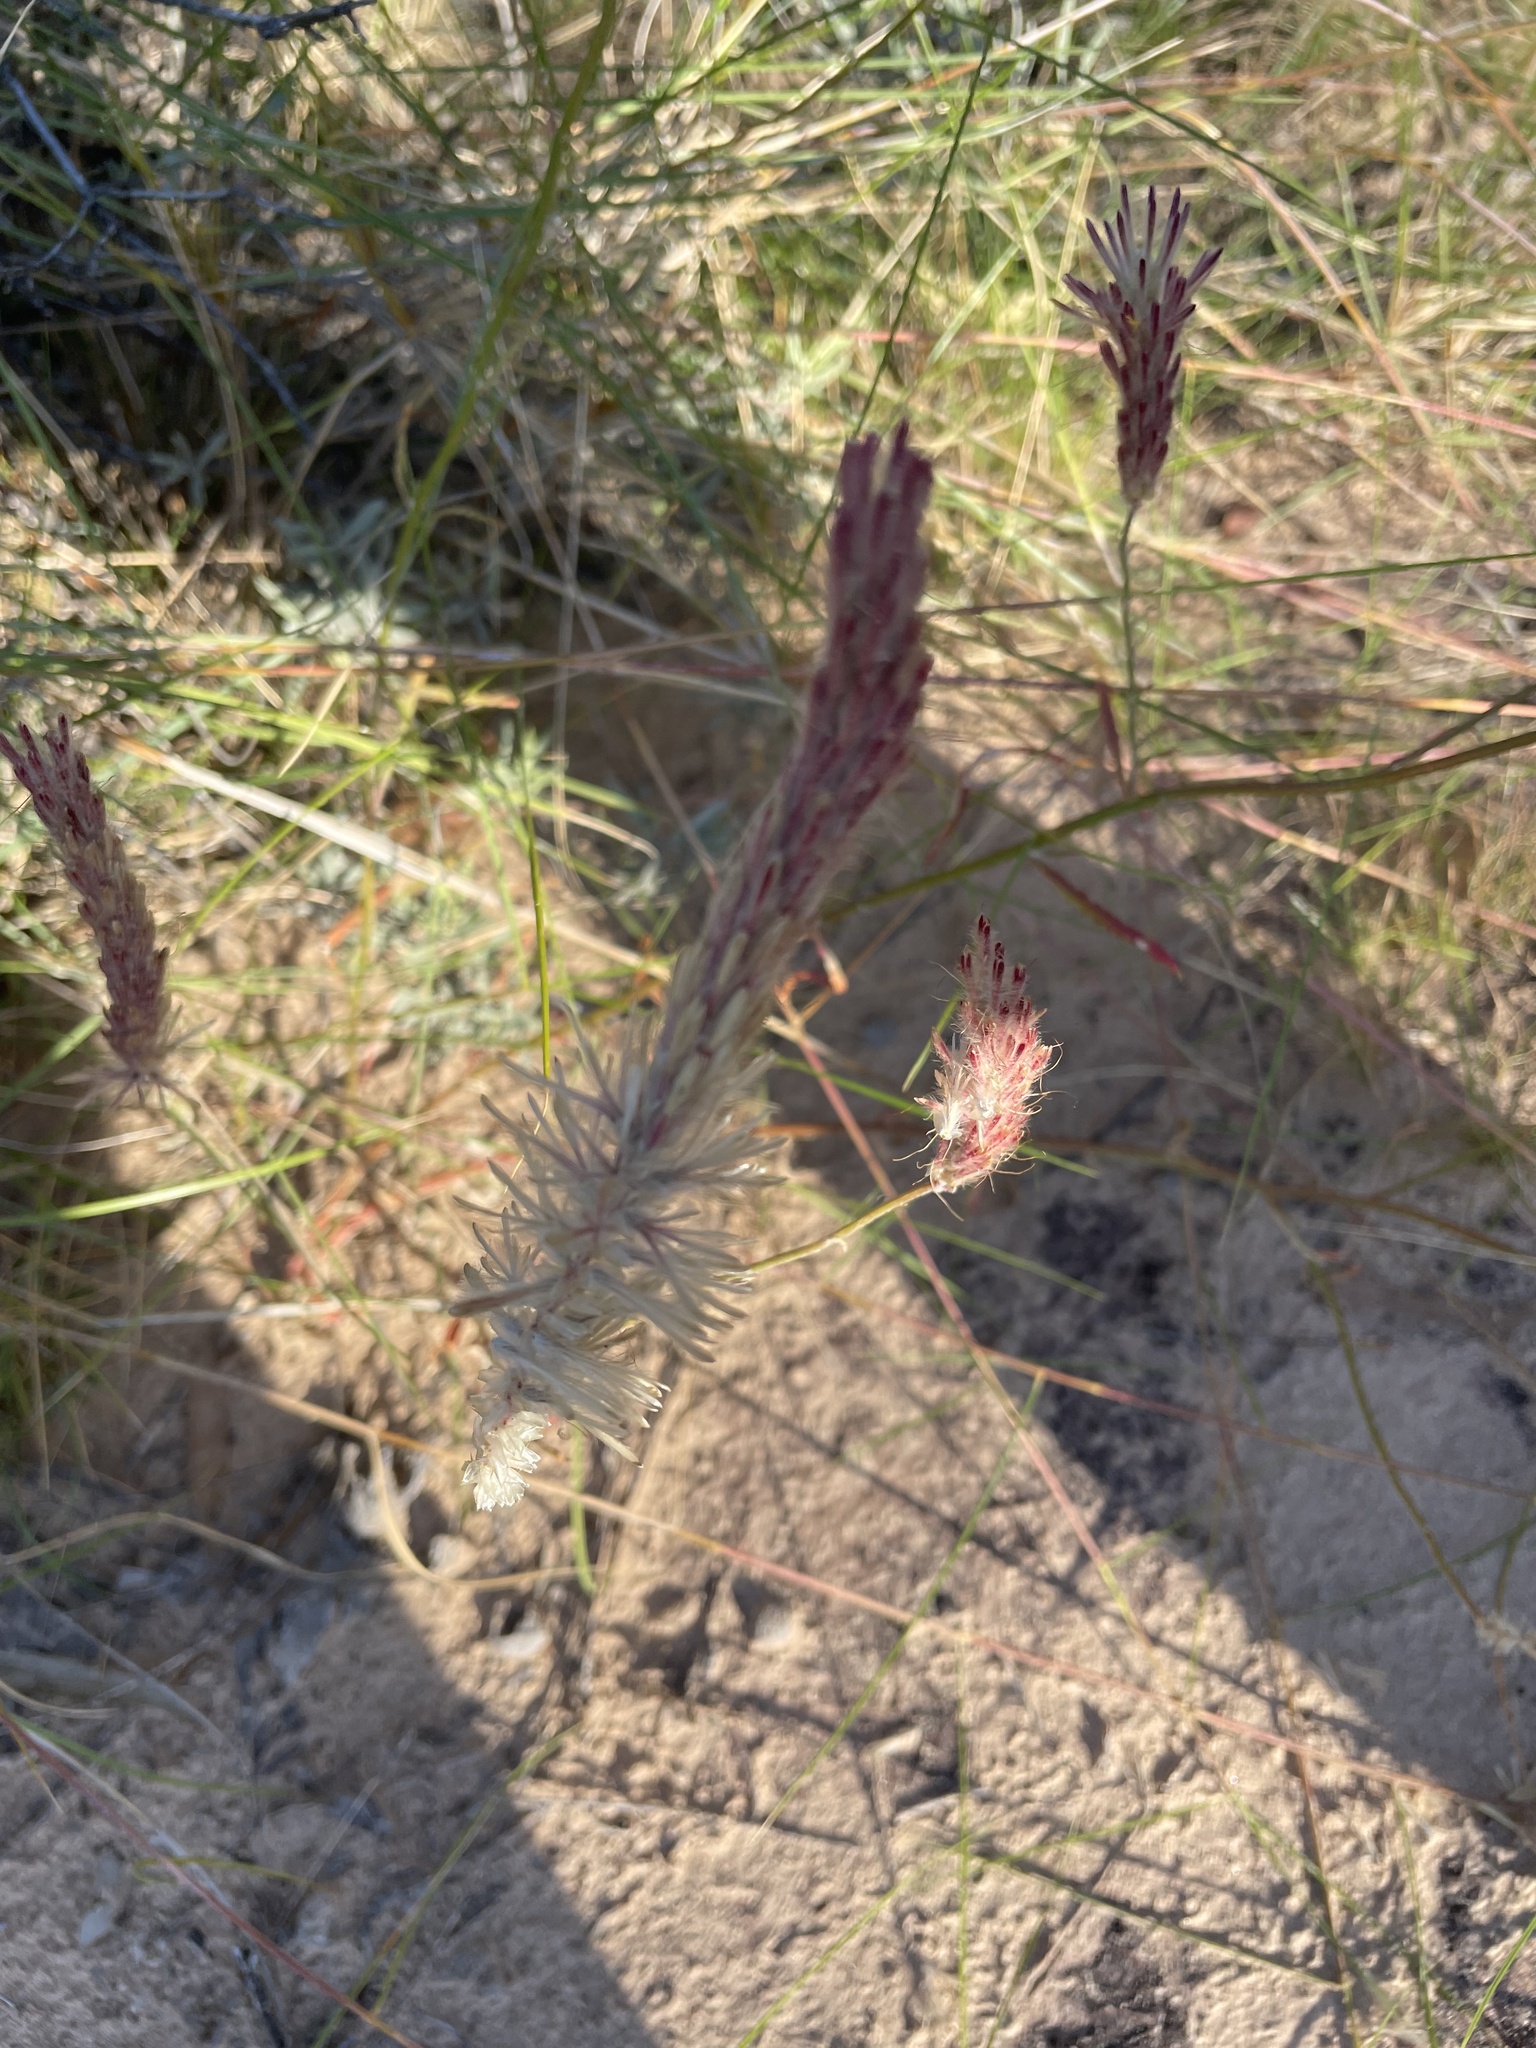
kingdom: Plantae
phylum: Tracheophyta
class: Magnoliopsida
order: Caryophyllales
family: Amaranthaceae
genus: Ptilotus
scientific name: Ptilotus polystachyus
